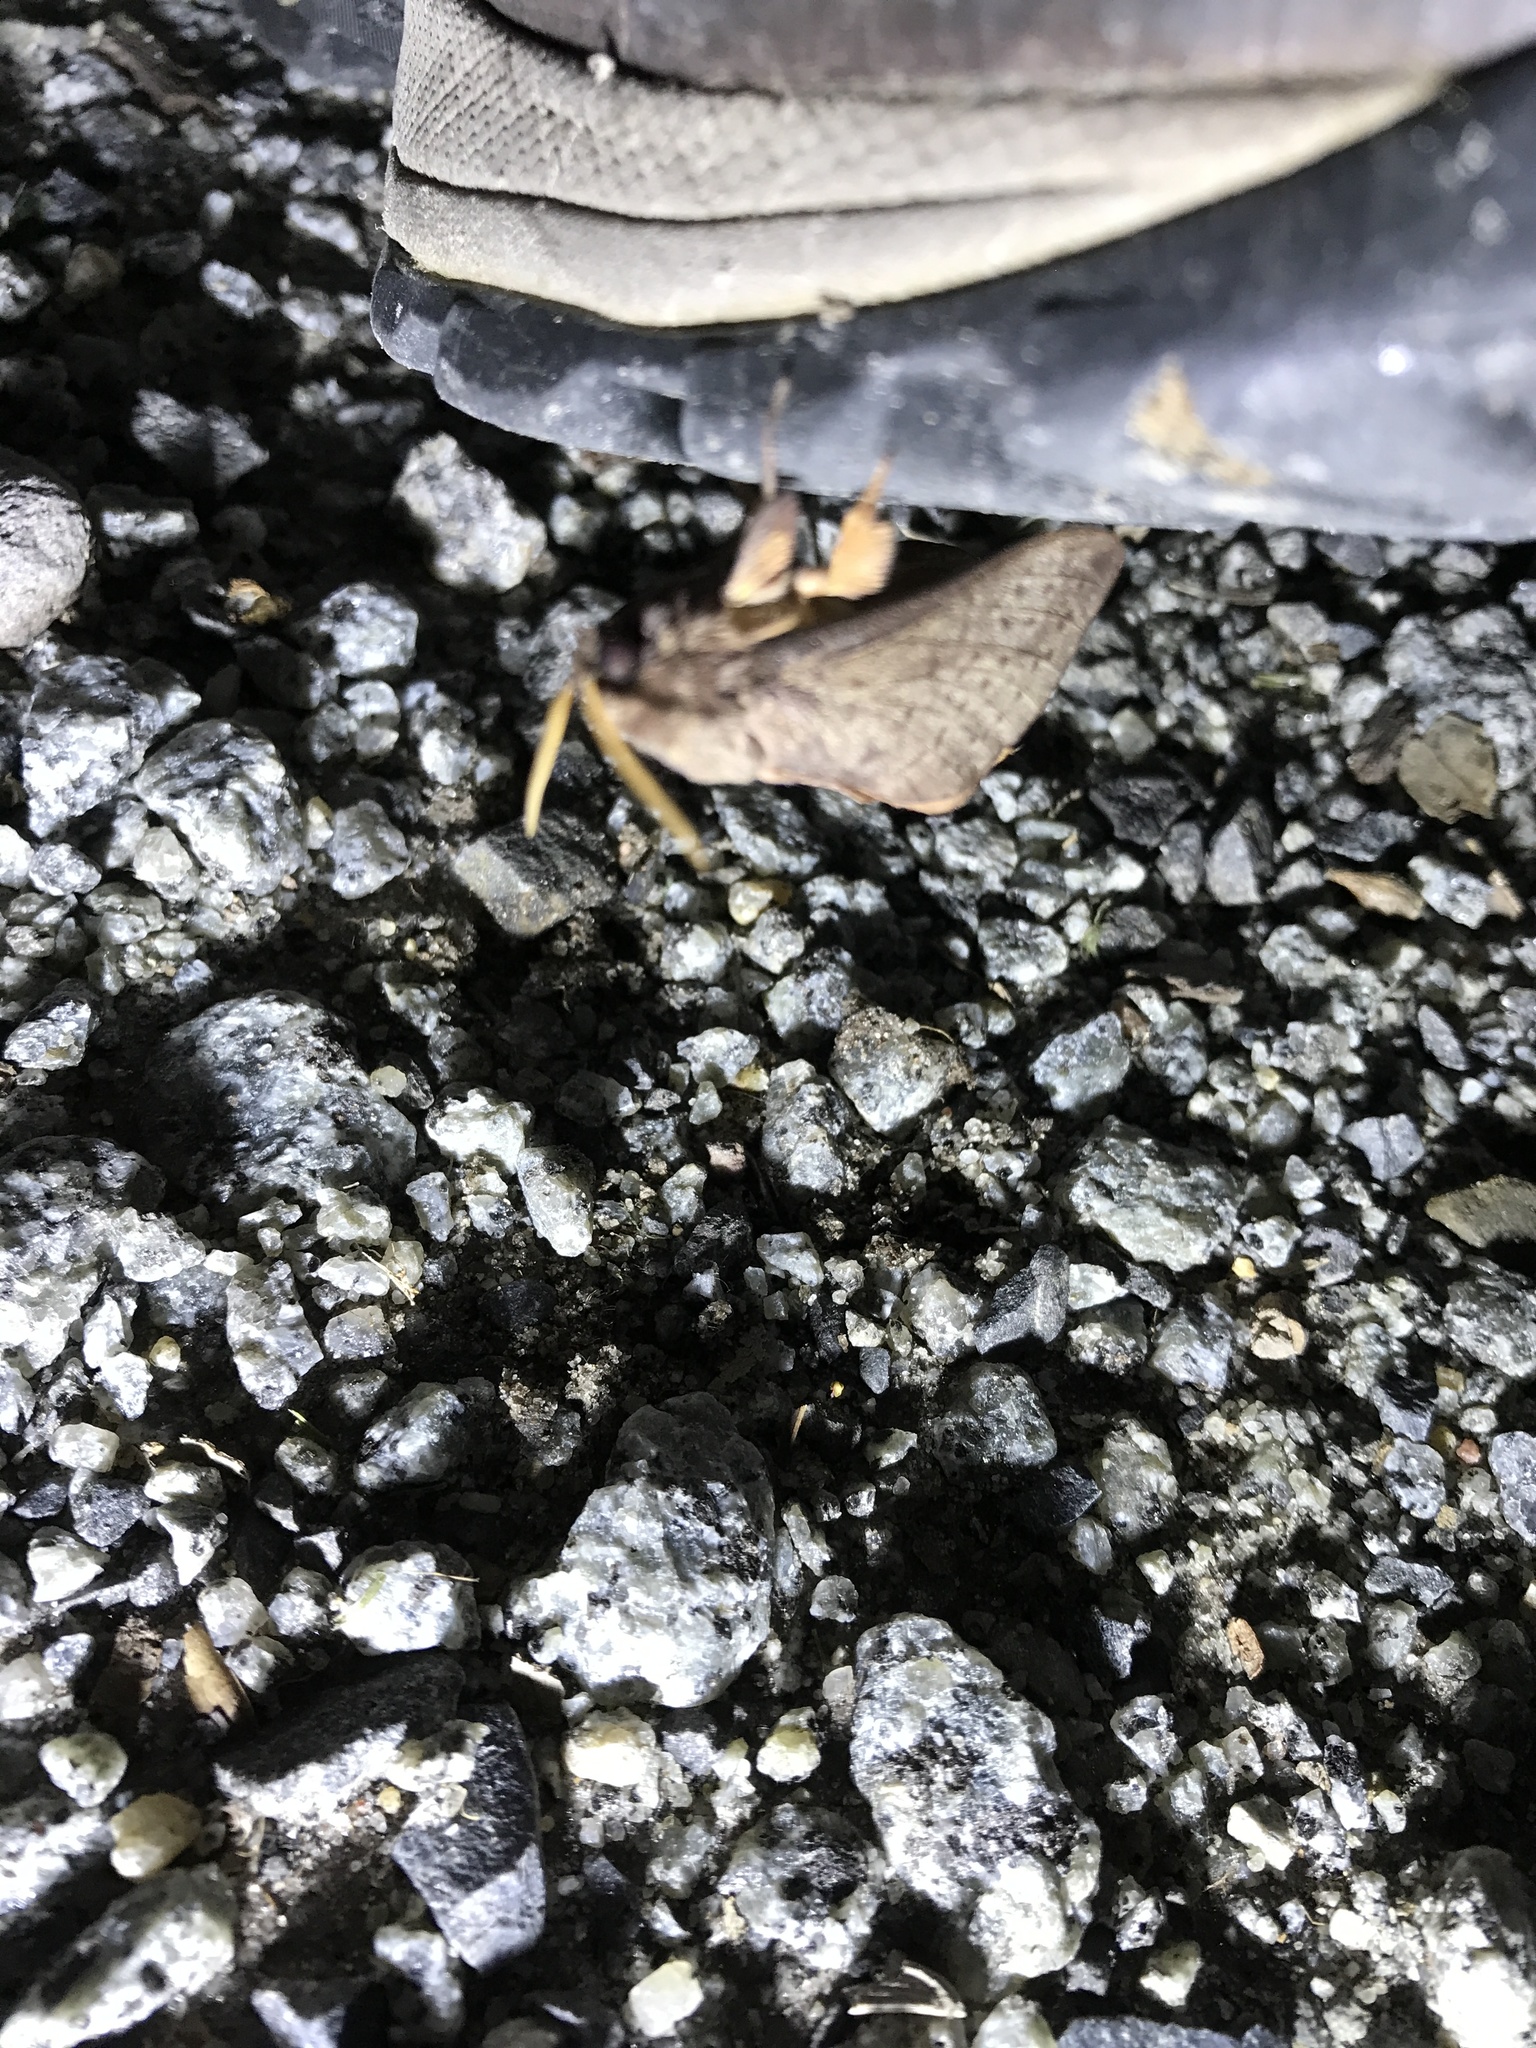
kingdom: Animalia
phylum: Arthropoda
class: Insecta
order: Lepidoptera
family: Hepialidae
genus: Oxycanus
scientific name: Oxycanus silvanus
